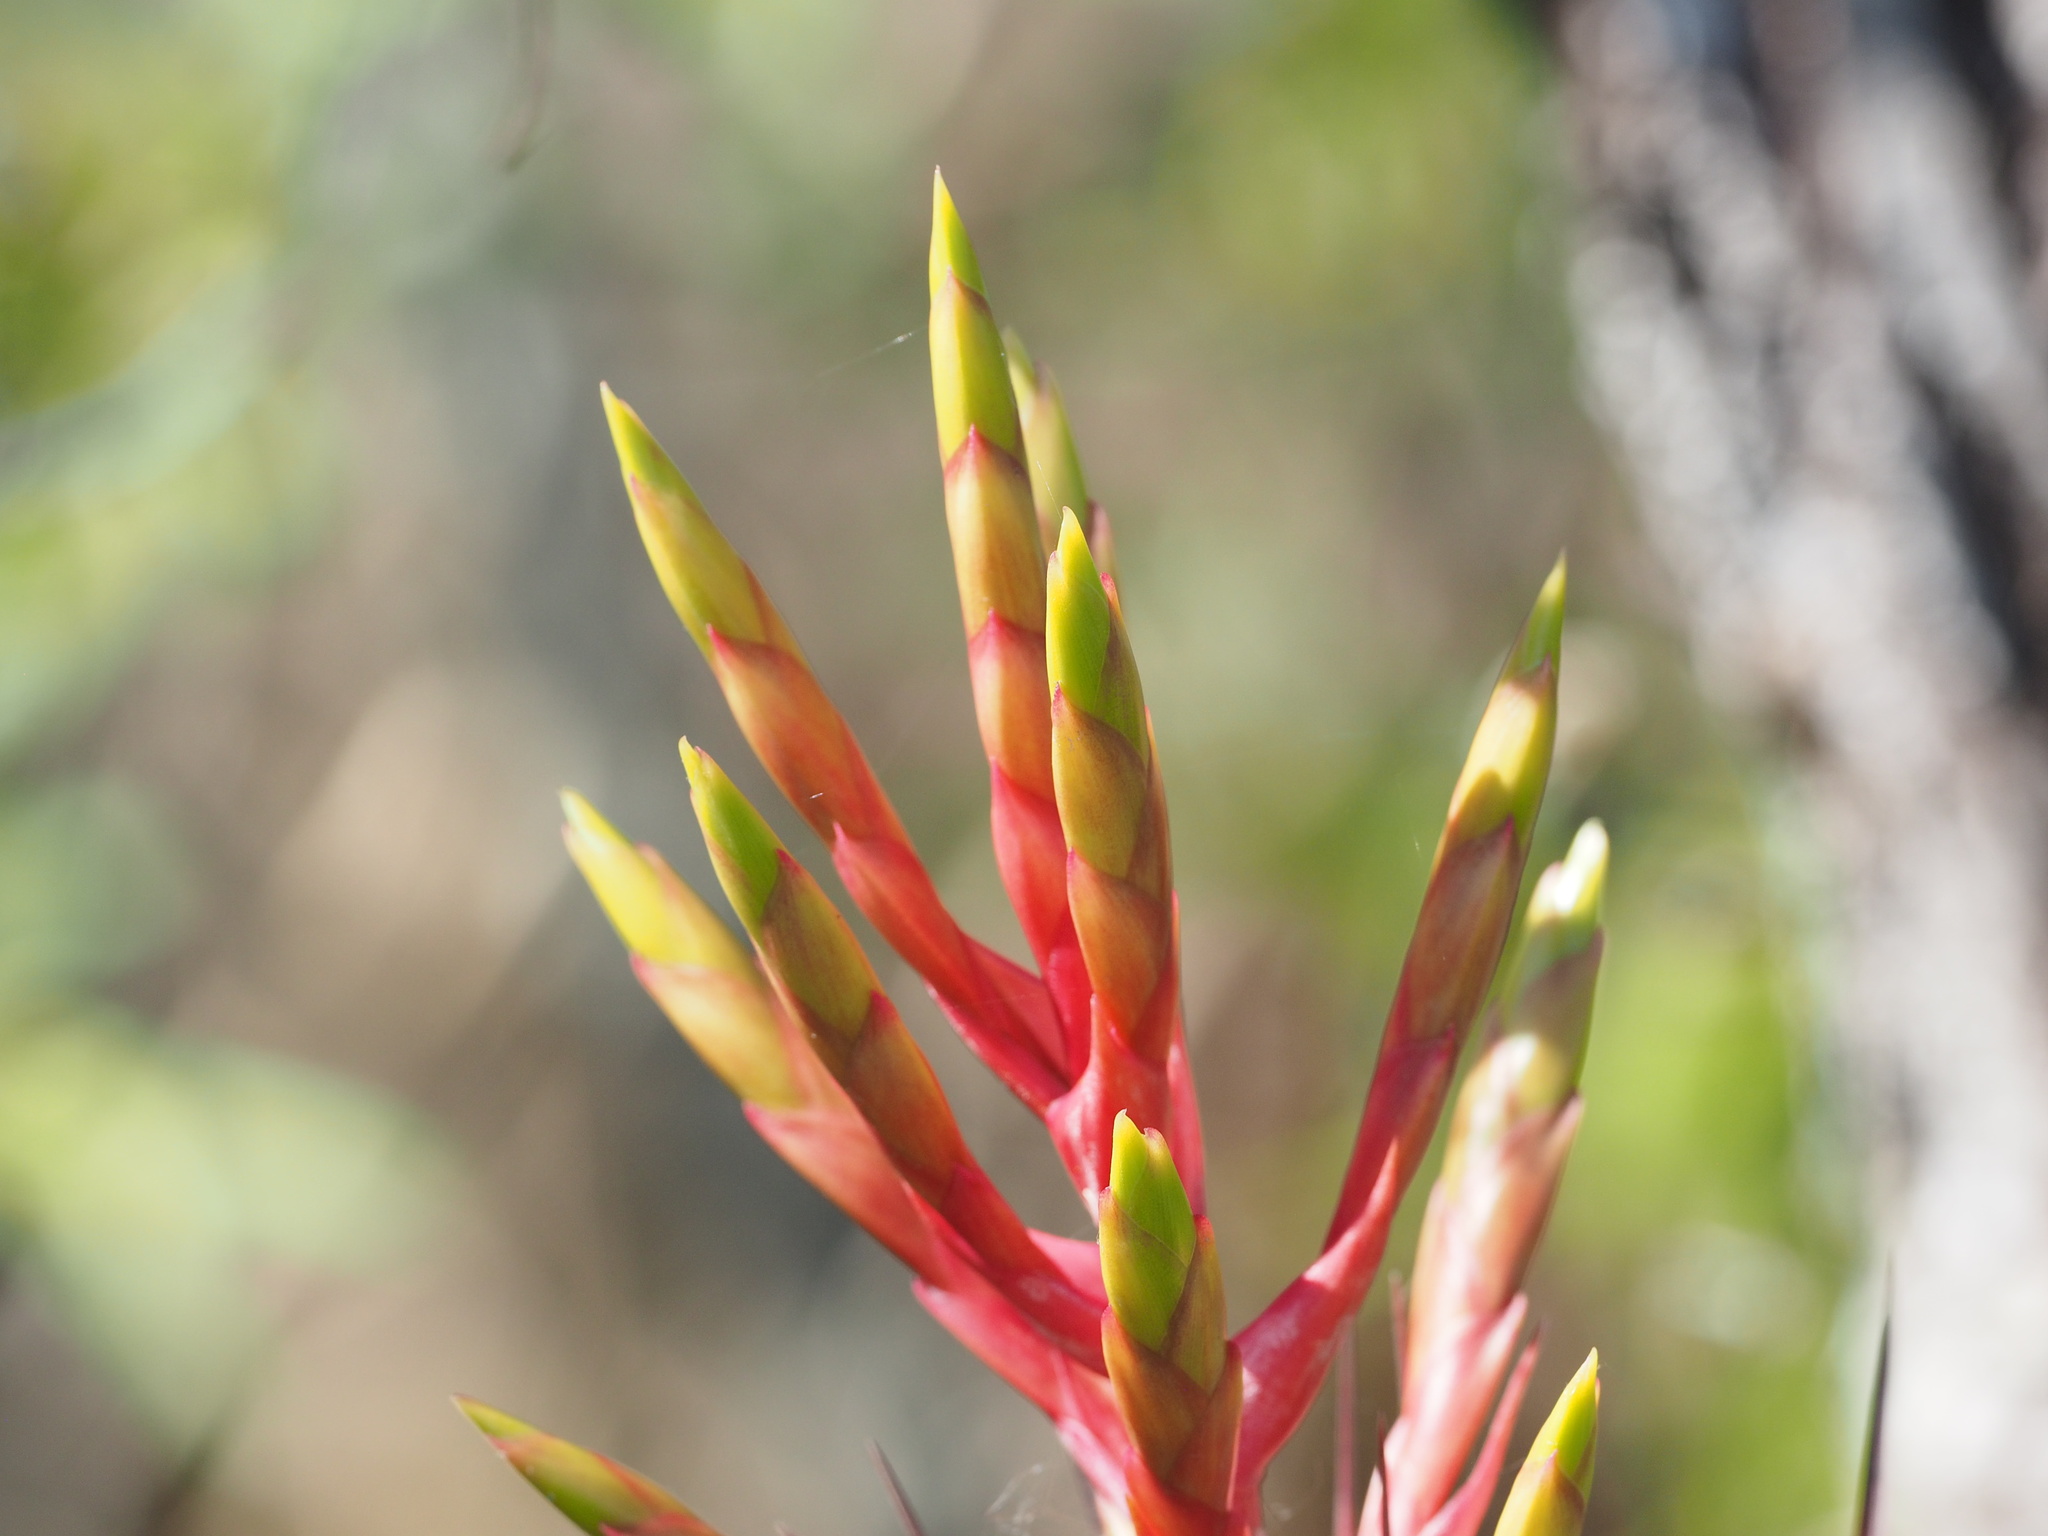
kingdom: Plantae
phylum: Tracheophyta
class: Liliopsida
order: Poales
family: Bromeliaceae
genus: Tillandsia
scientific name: Tillandsia fasciculata
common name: Giant airplant
